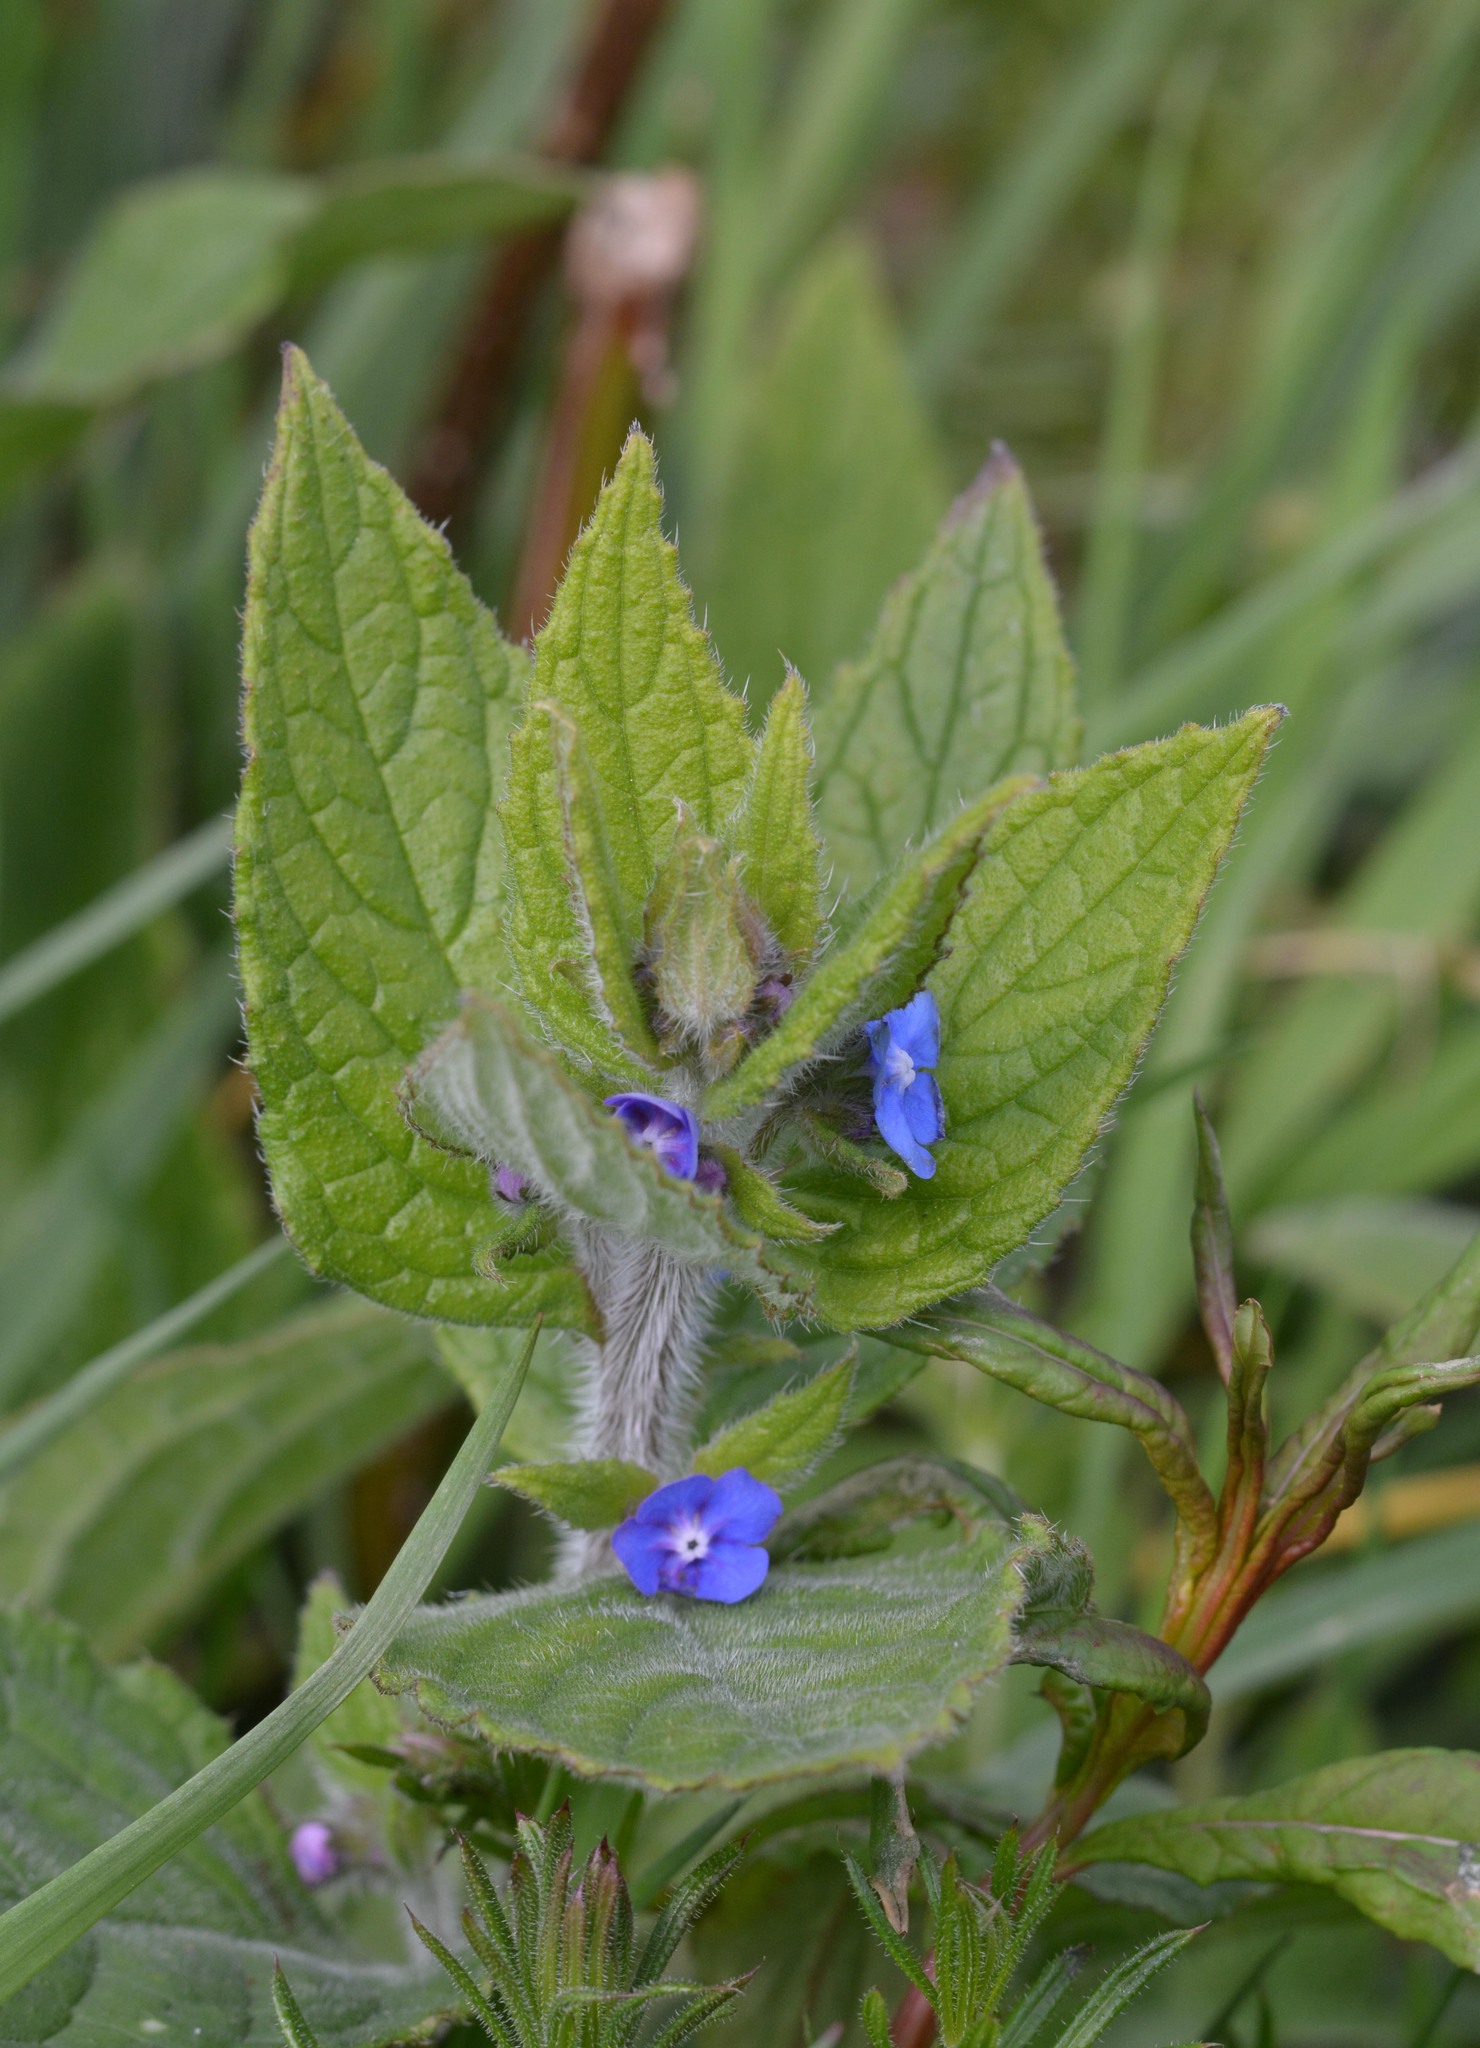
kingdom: Plantae
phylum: Tracheophyta
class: Magnoliopsida
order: Boraginales
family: Boraginaceae
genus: Pentaglottis
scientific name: Pentaglottis sempervirens
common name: Green alkanet
